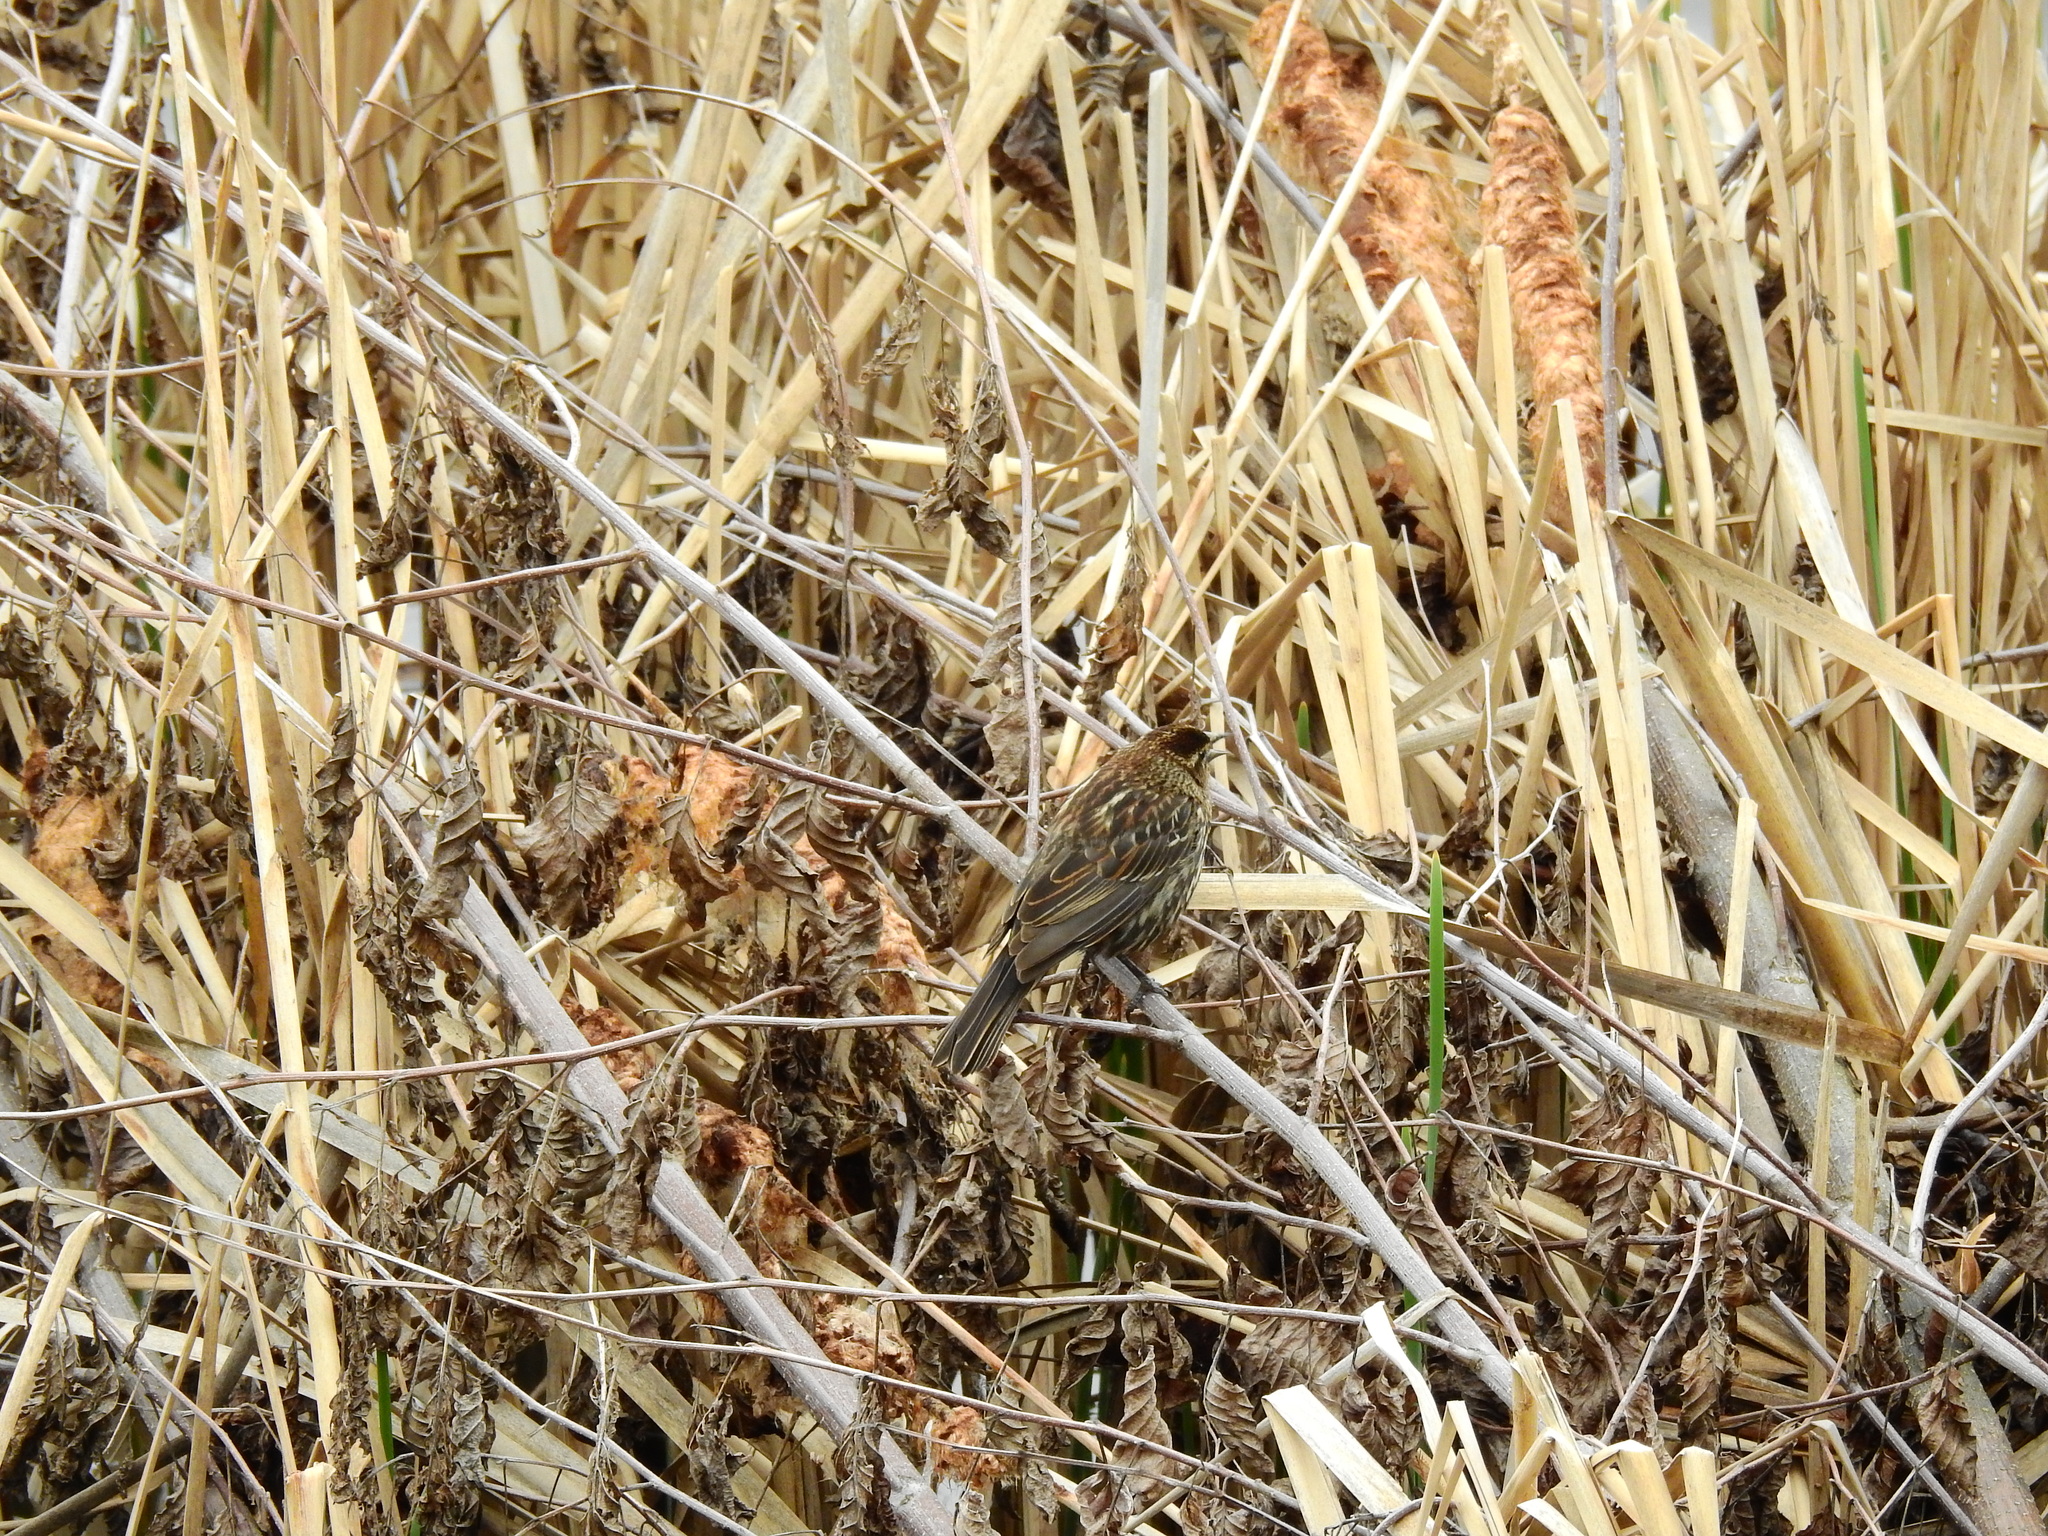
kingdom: Animalia
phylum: Chordata
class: Aves
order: Passeriformes
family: Icteridae
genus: Agelaius
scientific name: Agelaius phoeniceus
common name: Red-winged blackbird
